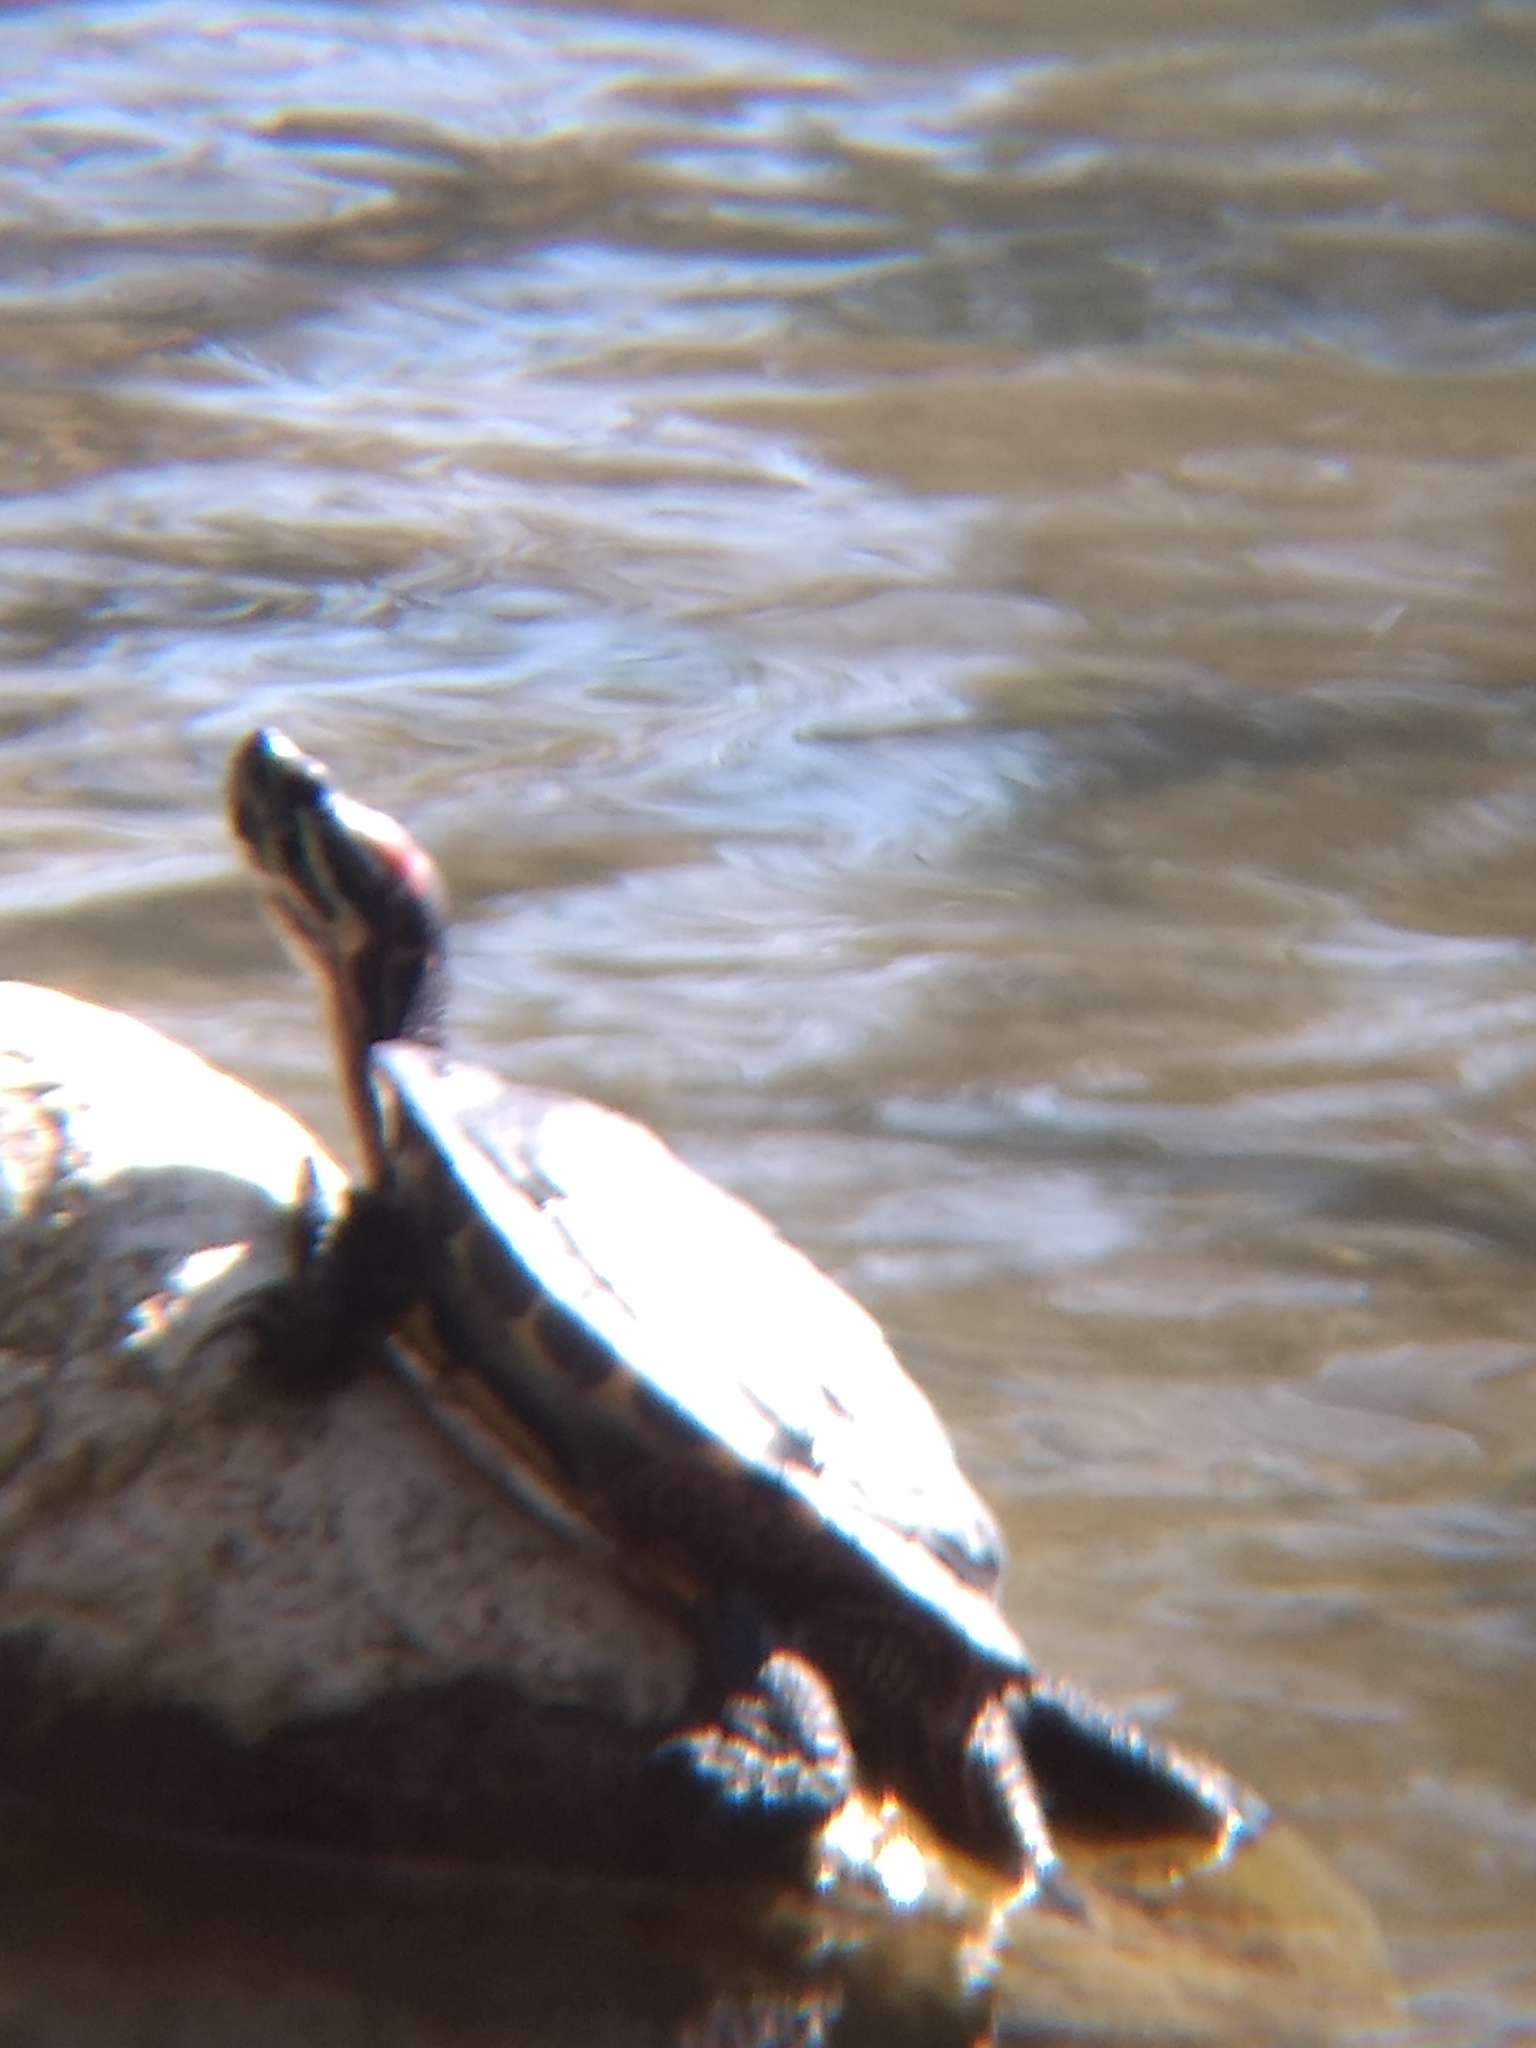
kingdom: Animalia
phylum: Chordata
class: Testudines
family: Emydidae
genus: Trachemys
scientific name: Trachemys scripta
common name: Slider
